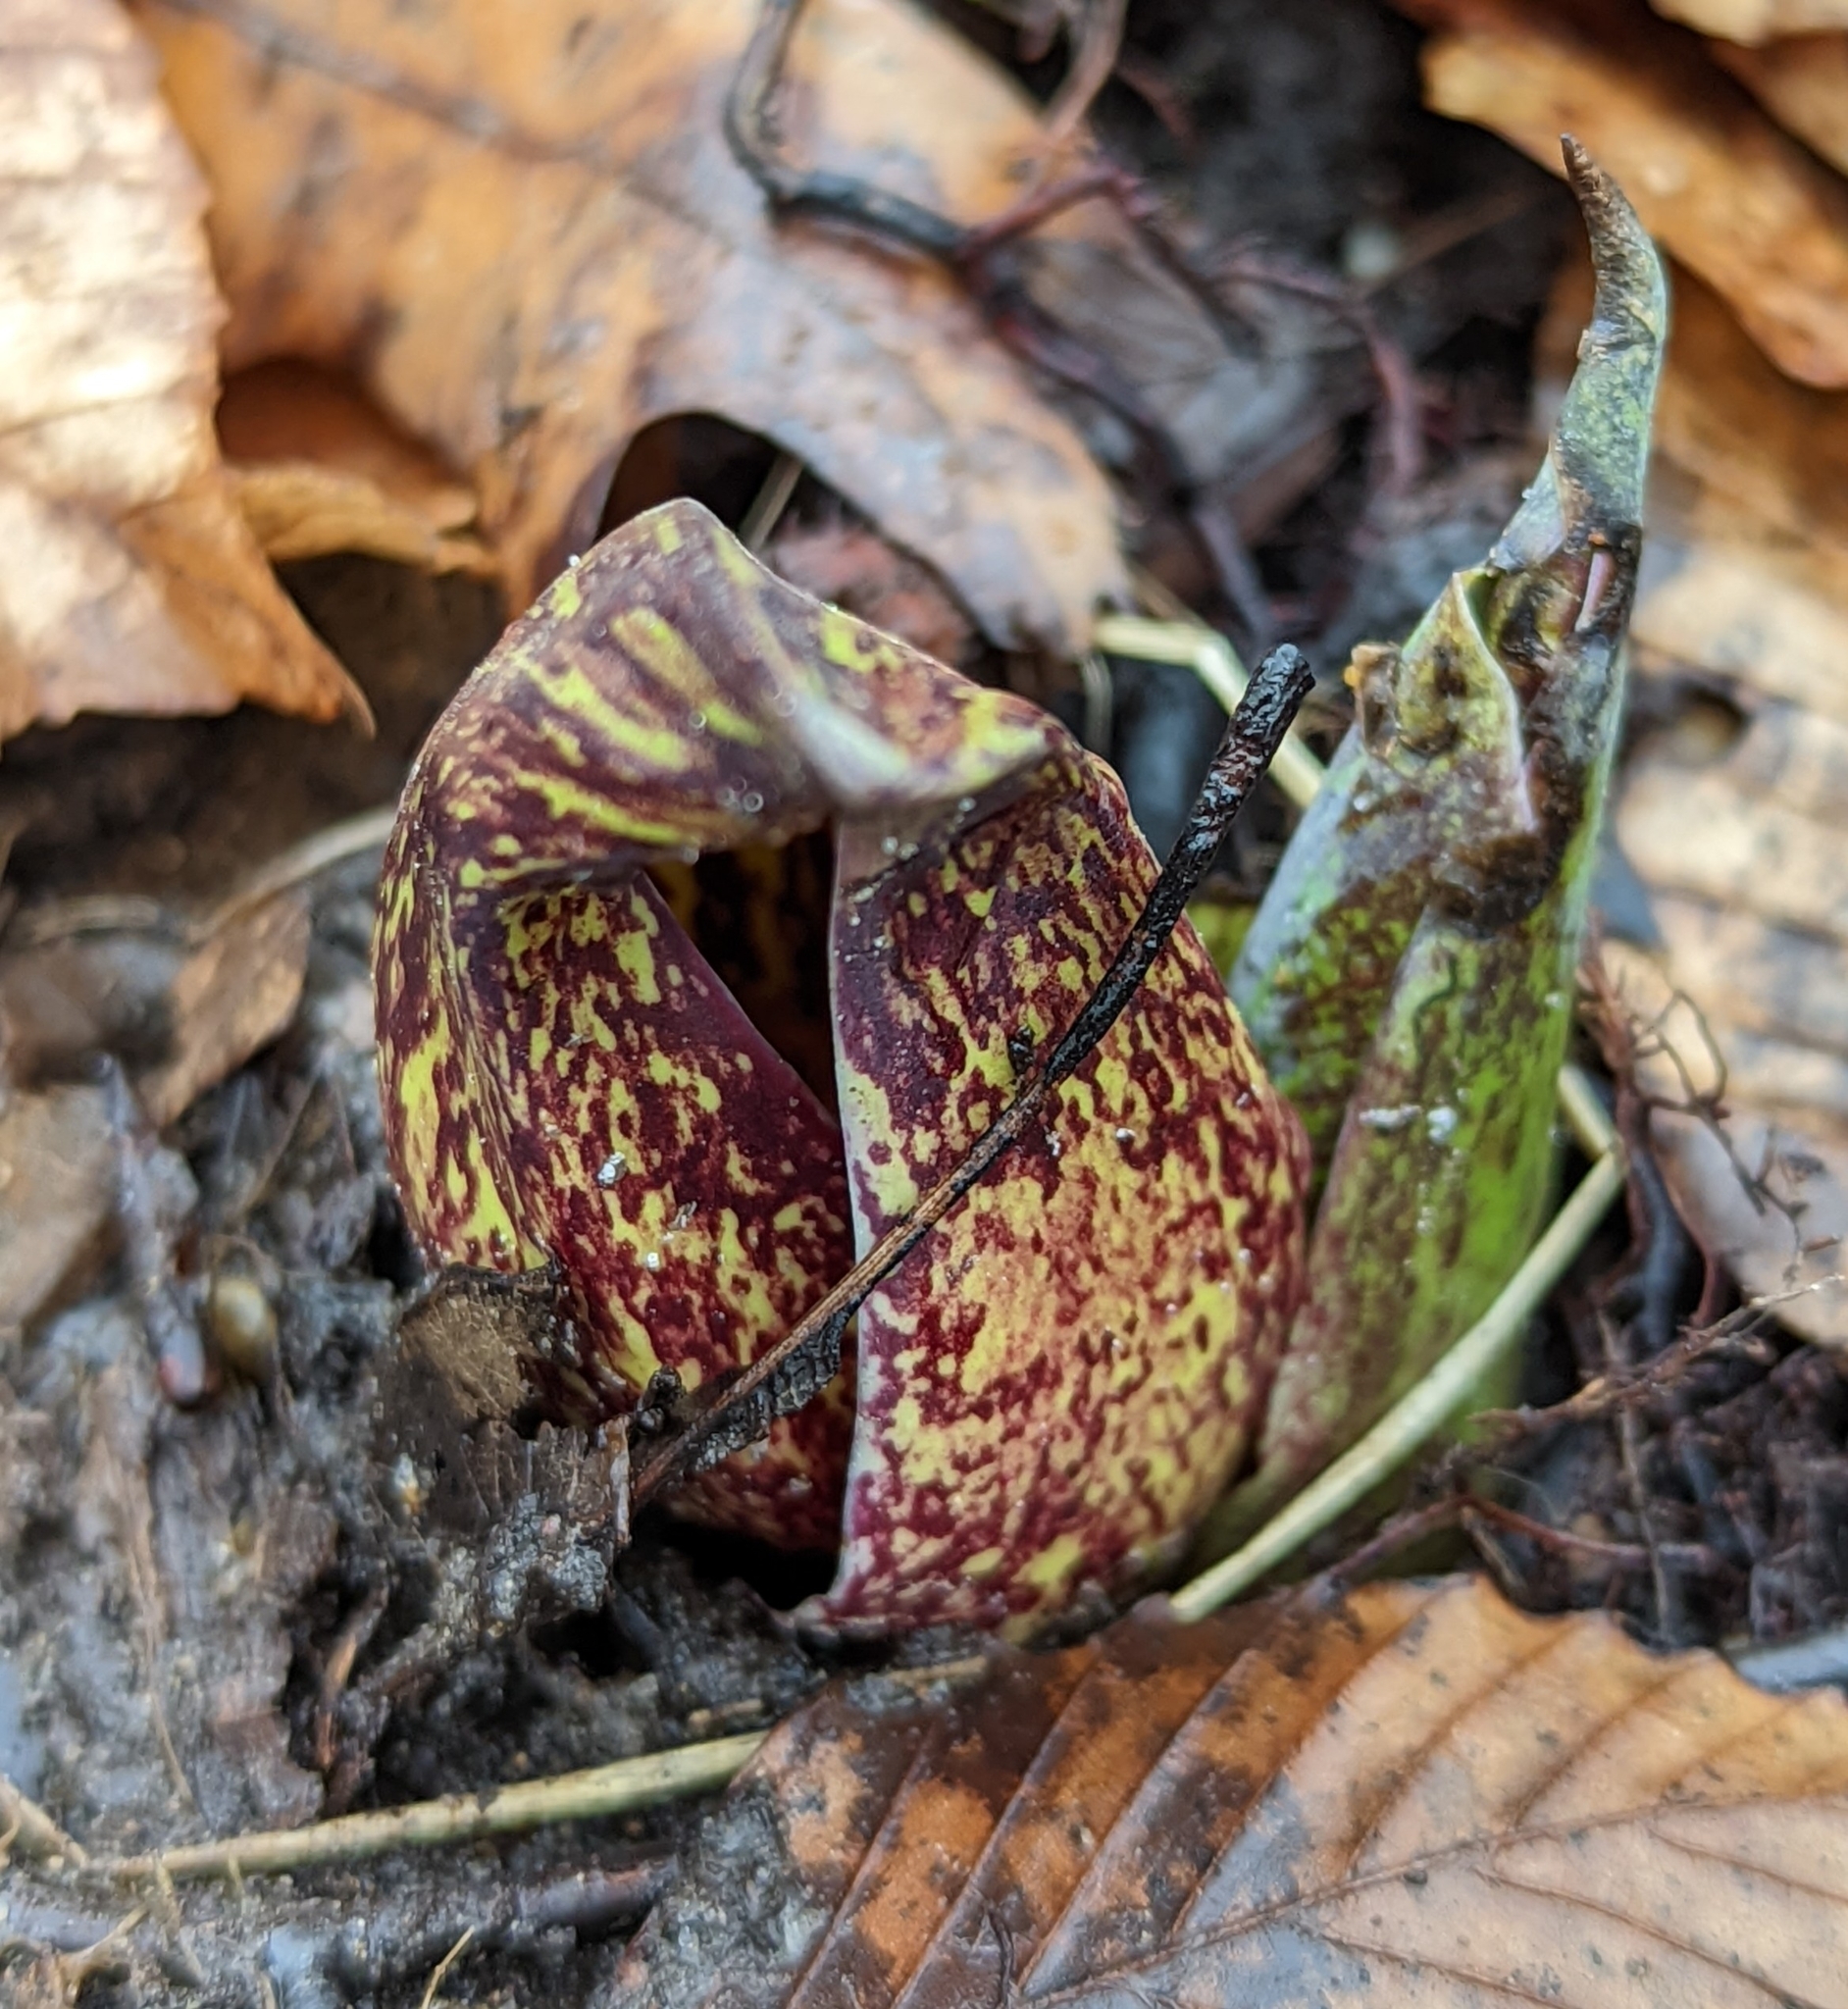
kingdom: Plantae
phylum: Tracheophyta
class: Liliopsida
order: Alismatales
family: Araceae
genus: Symplocarpus
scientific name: Symplocarpus foetidus
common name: Eastern skunk cabbage
